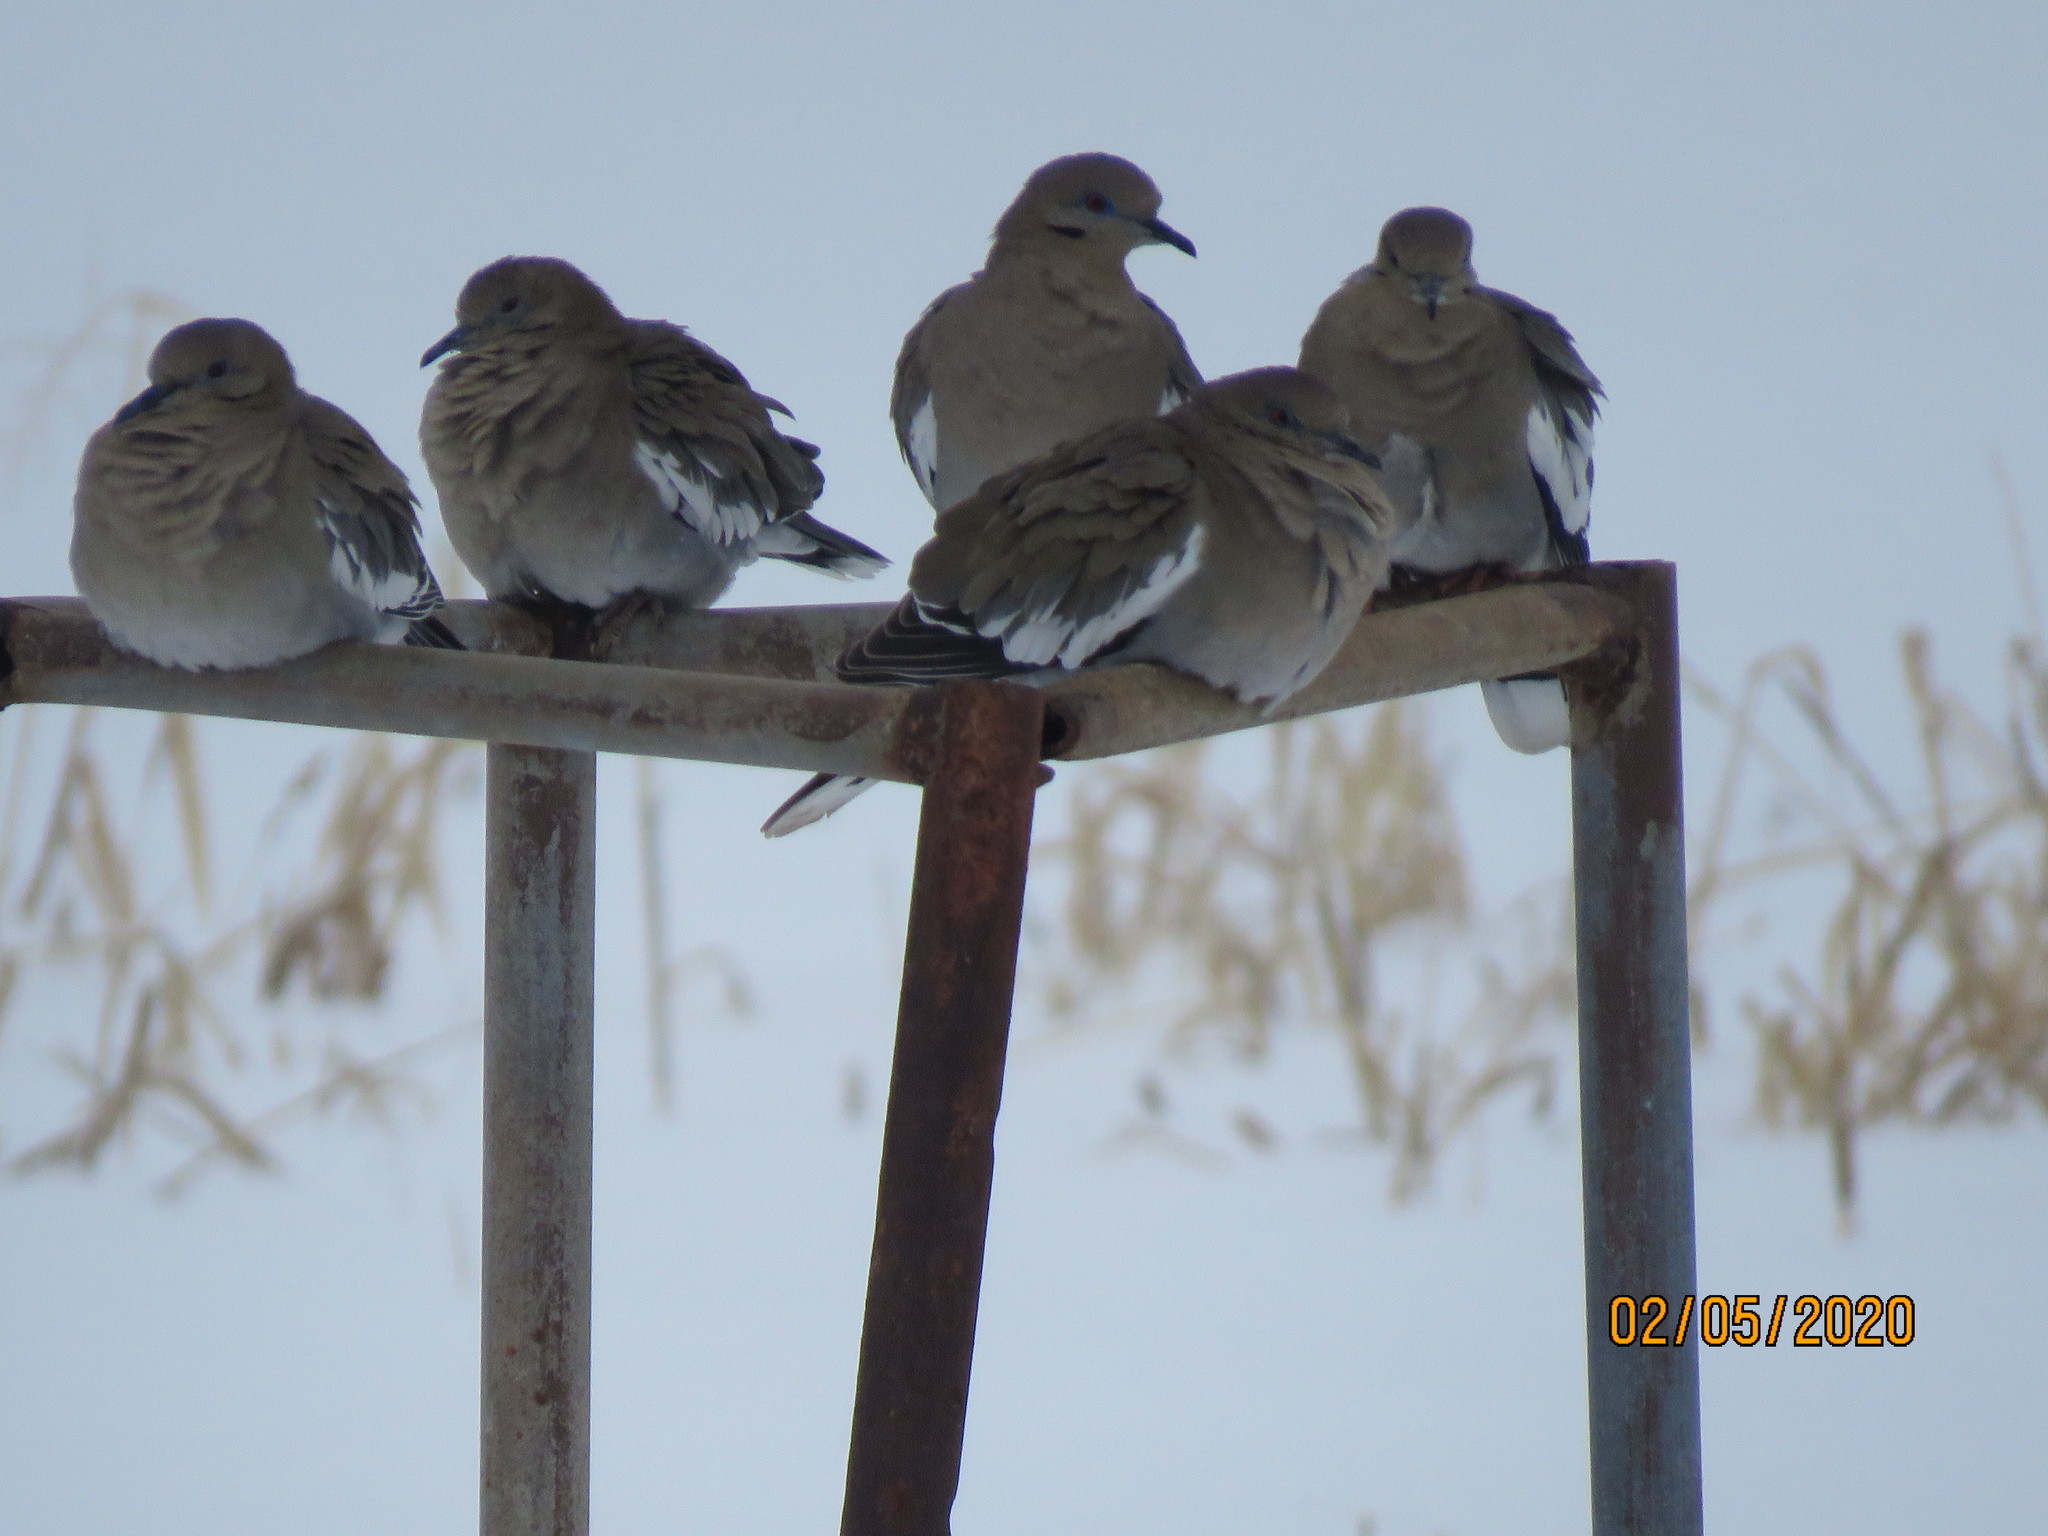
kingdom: Animalia
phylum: Chordata
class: Aves
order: Columbiformes
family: Columbidae
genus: Zenaida
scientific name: Zenaida asiatica
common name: White-winged dove
